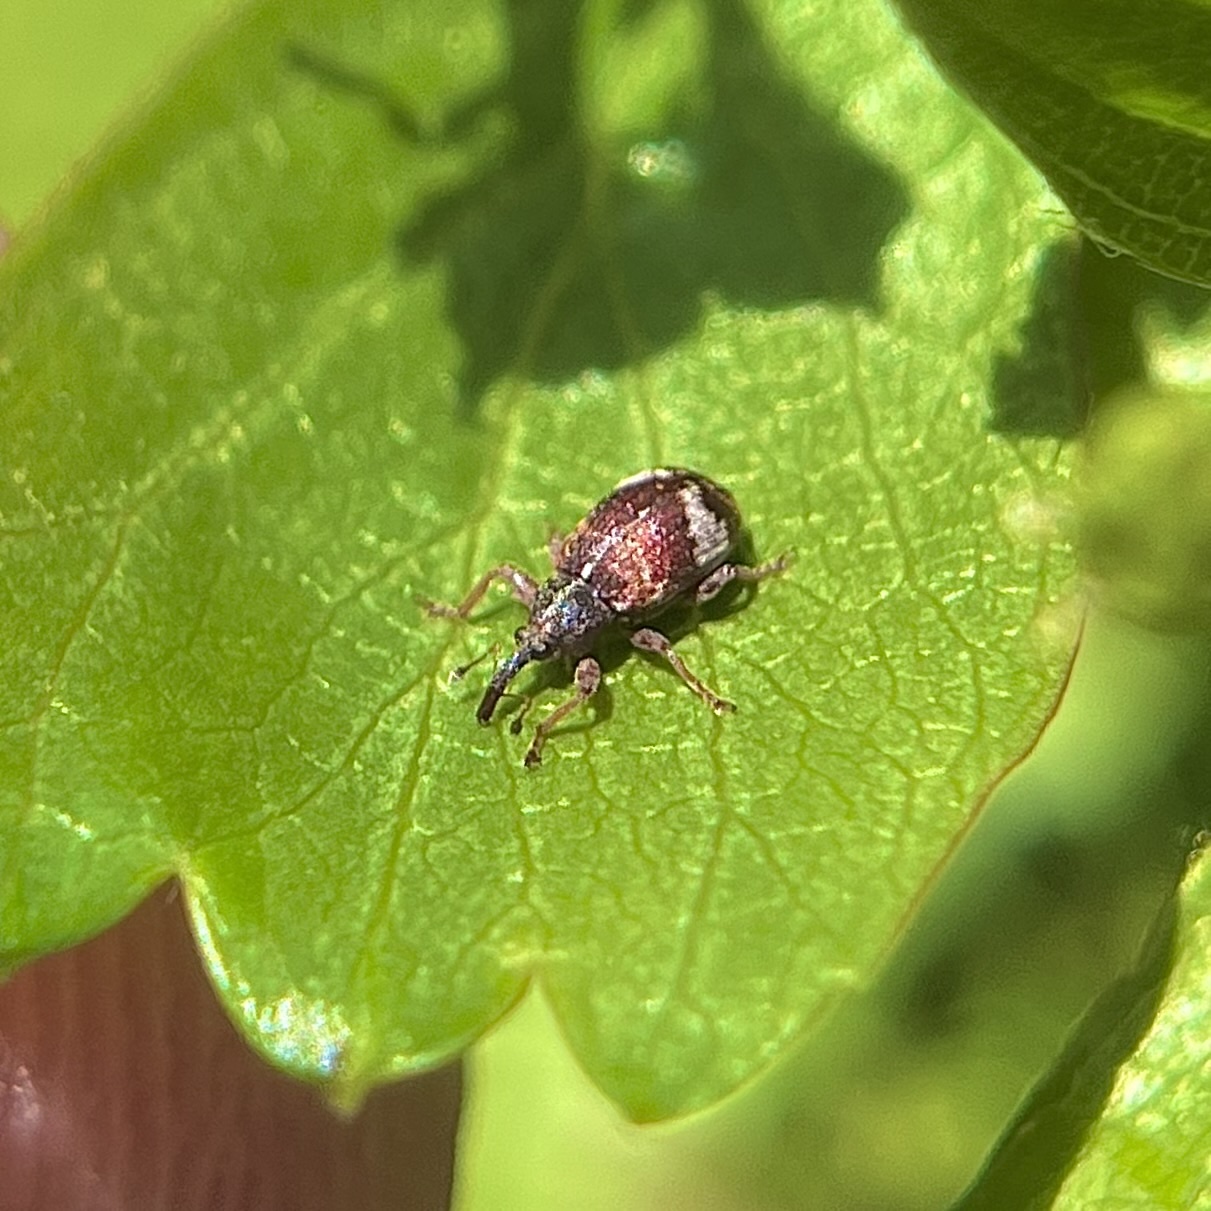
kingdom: Animalia
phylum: Arthropoda
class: Insecta
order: Coleoptera
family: Curculionidae
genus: Anthonomus
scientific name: Anthonomus pedicularius
